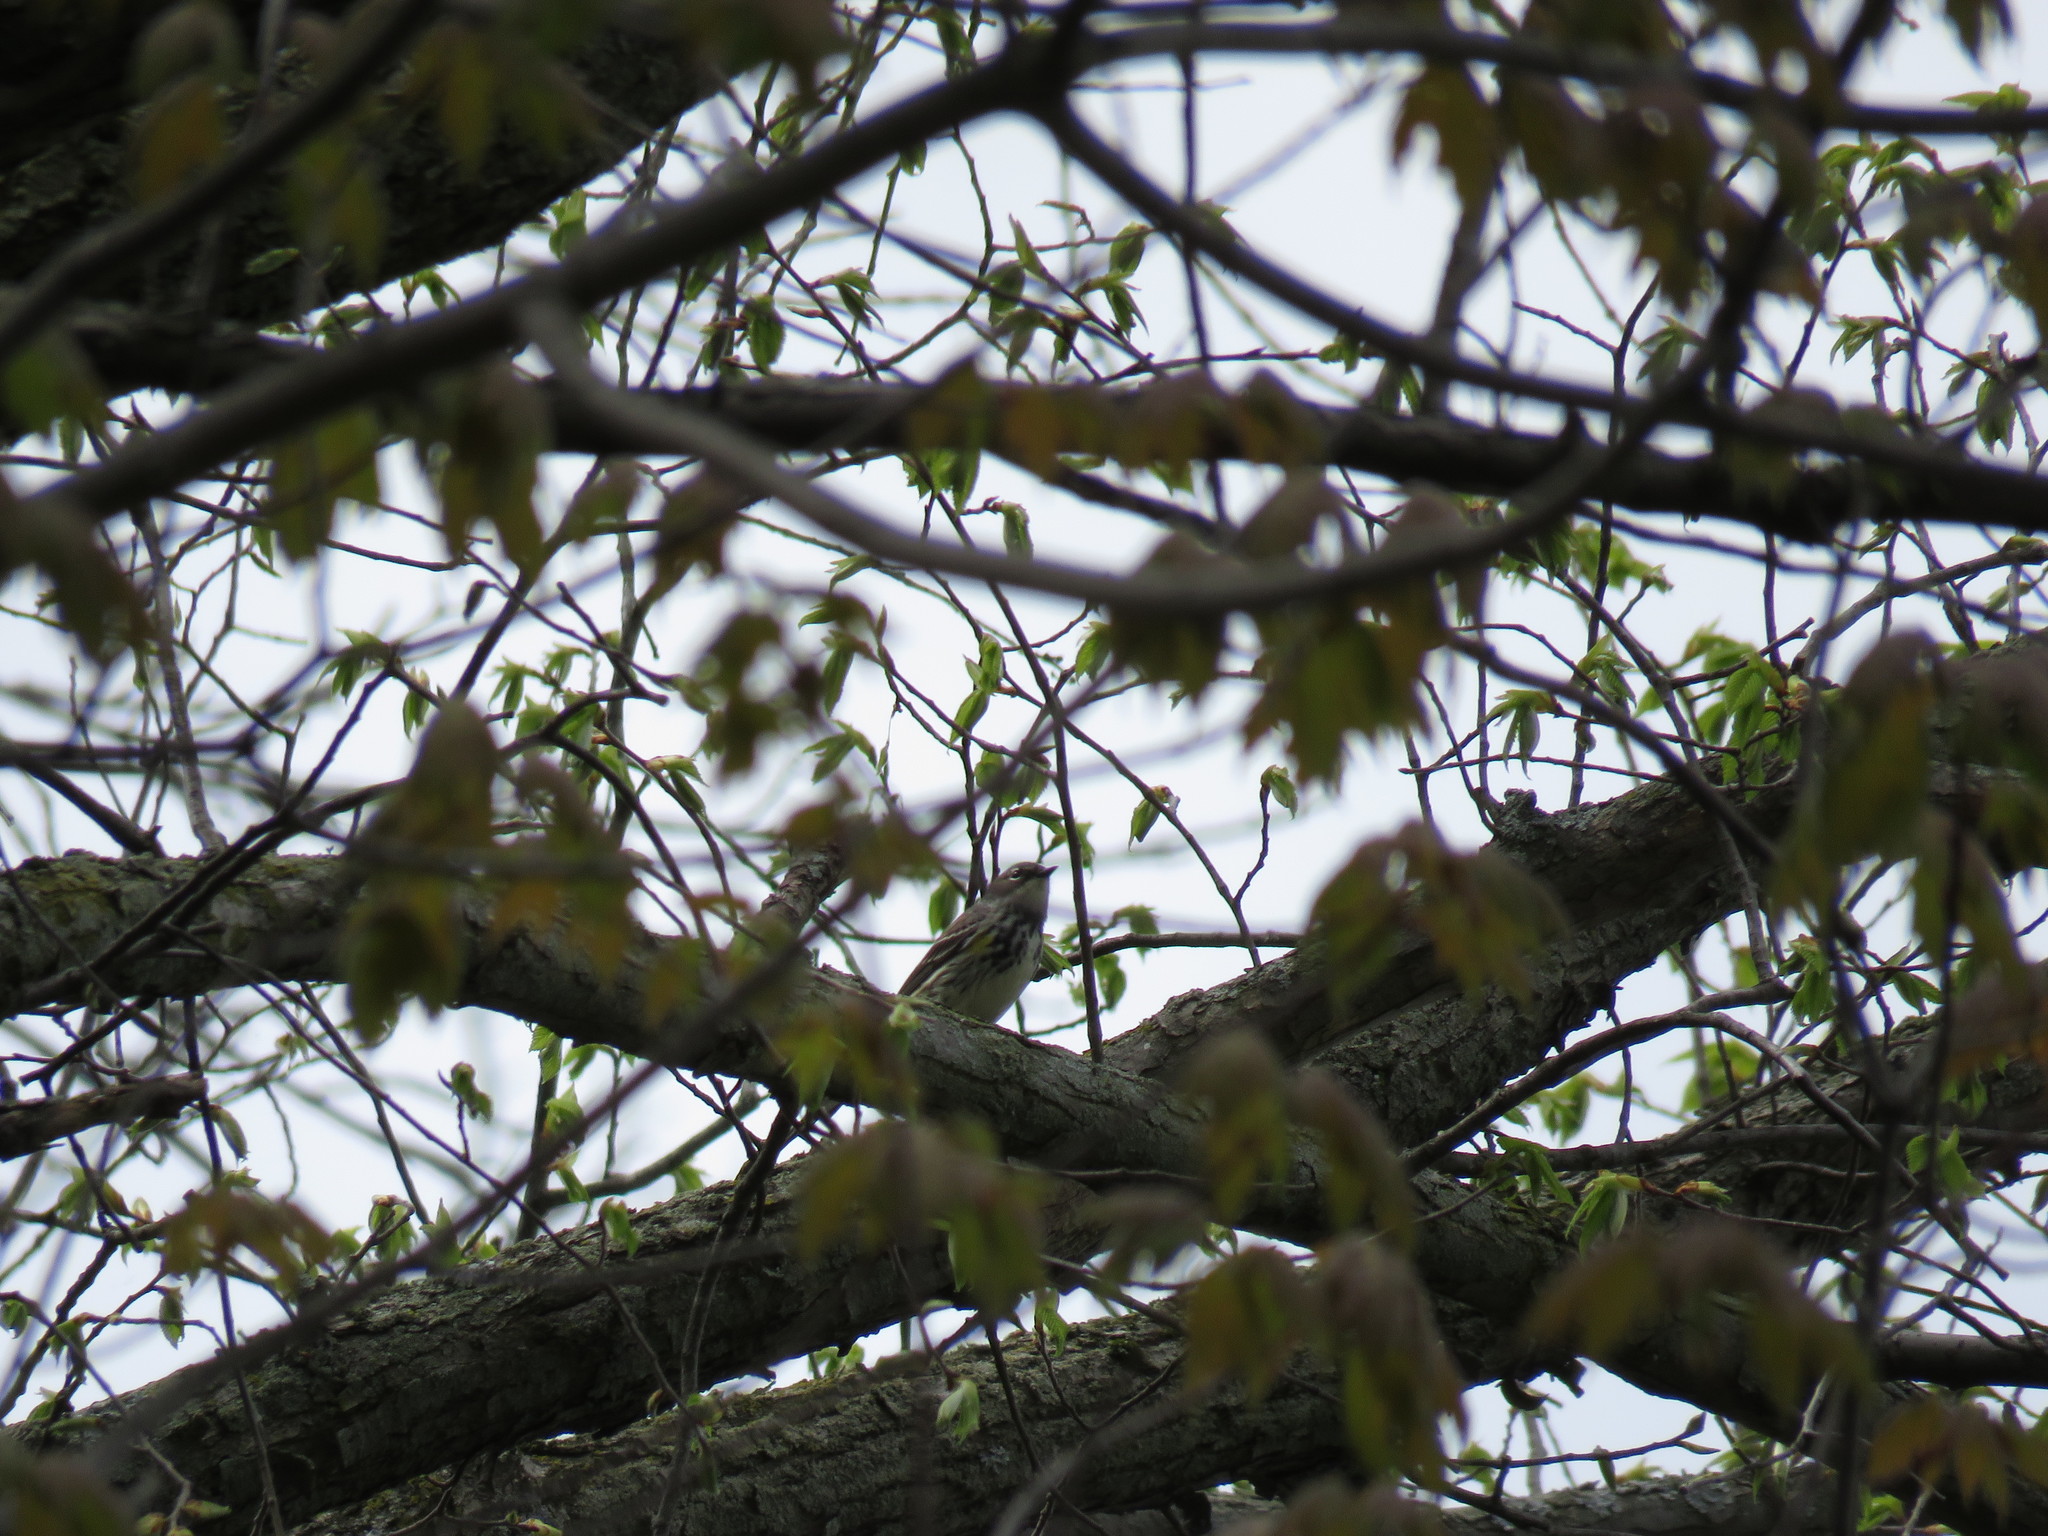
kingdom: Animalia
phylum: Chordata
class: Aves
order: Passeriformes
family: Parulidae
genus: Setophaga
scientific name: Setophaga coronata
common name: Myrtle warbler
